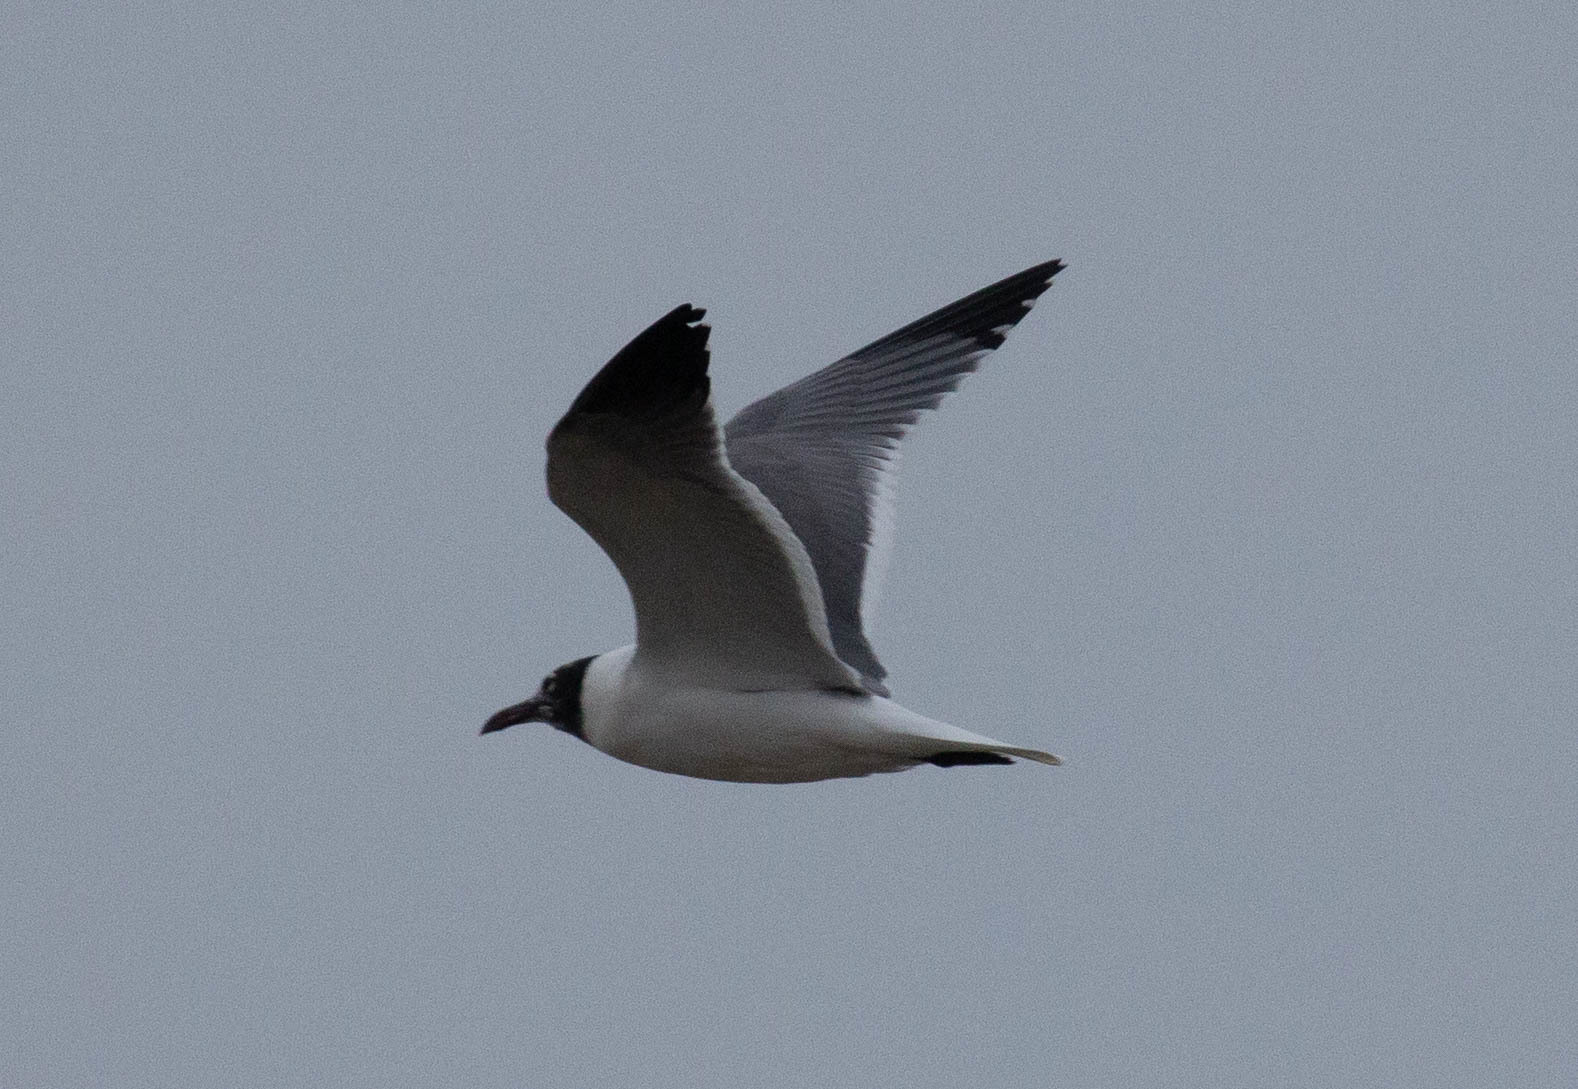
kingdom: Animalia
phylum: Chordata
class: Aves
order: Charadriiformes
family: Laridae
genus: Leucophaeus
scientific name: Leucophaeus atricilla
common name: Laughing gull
